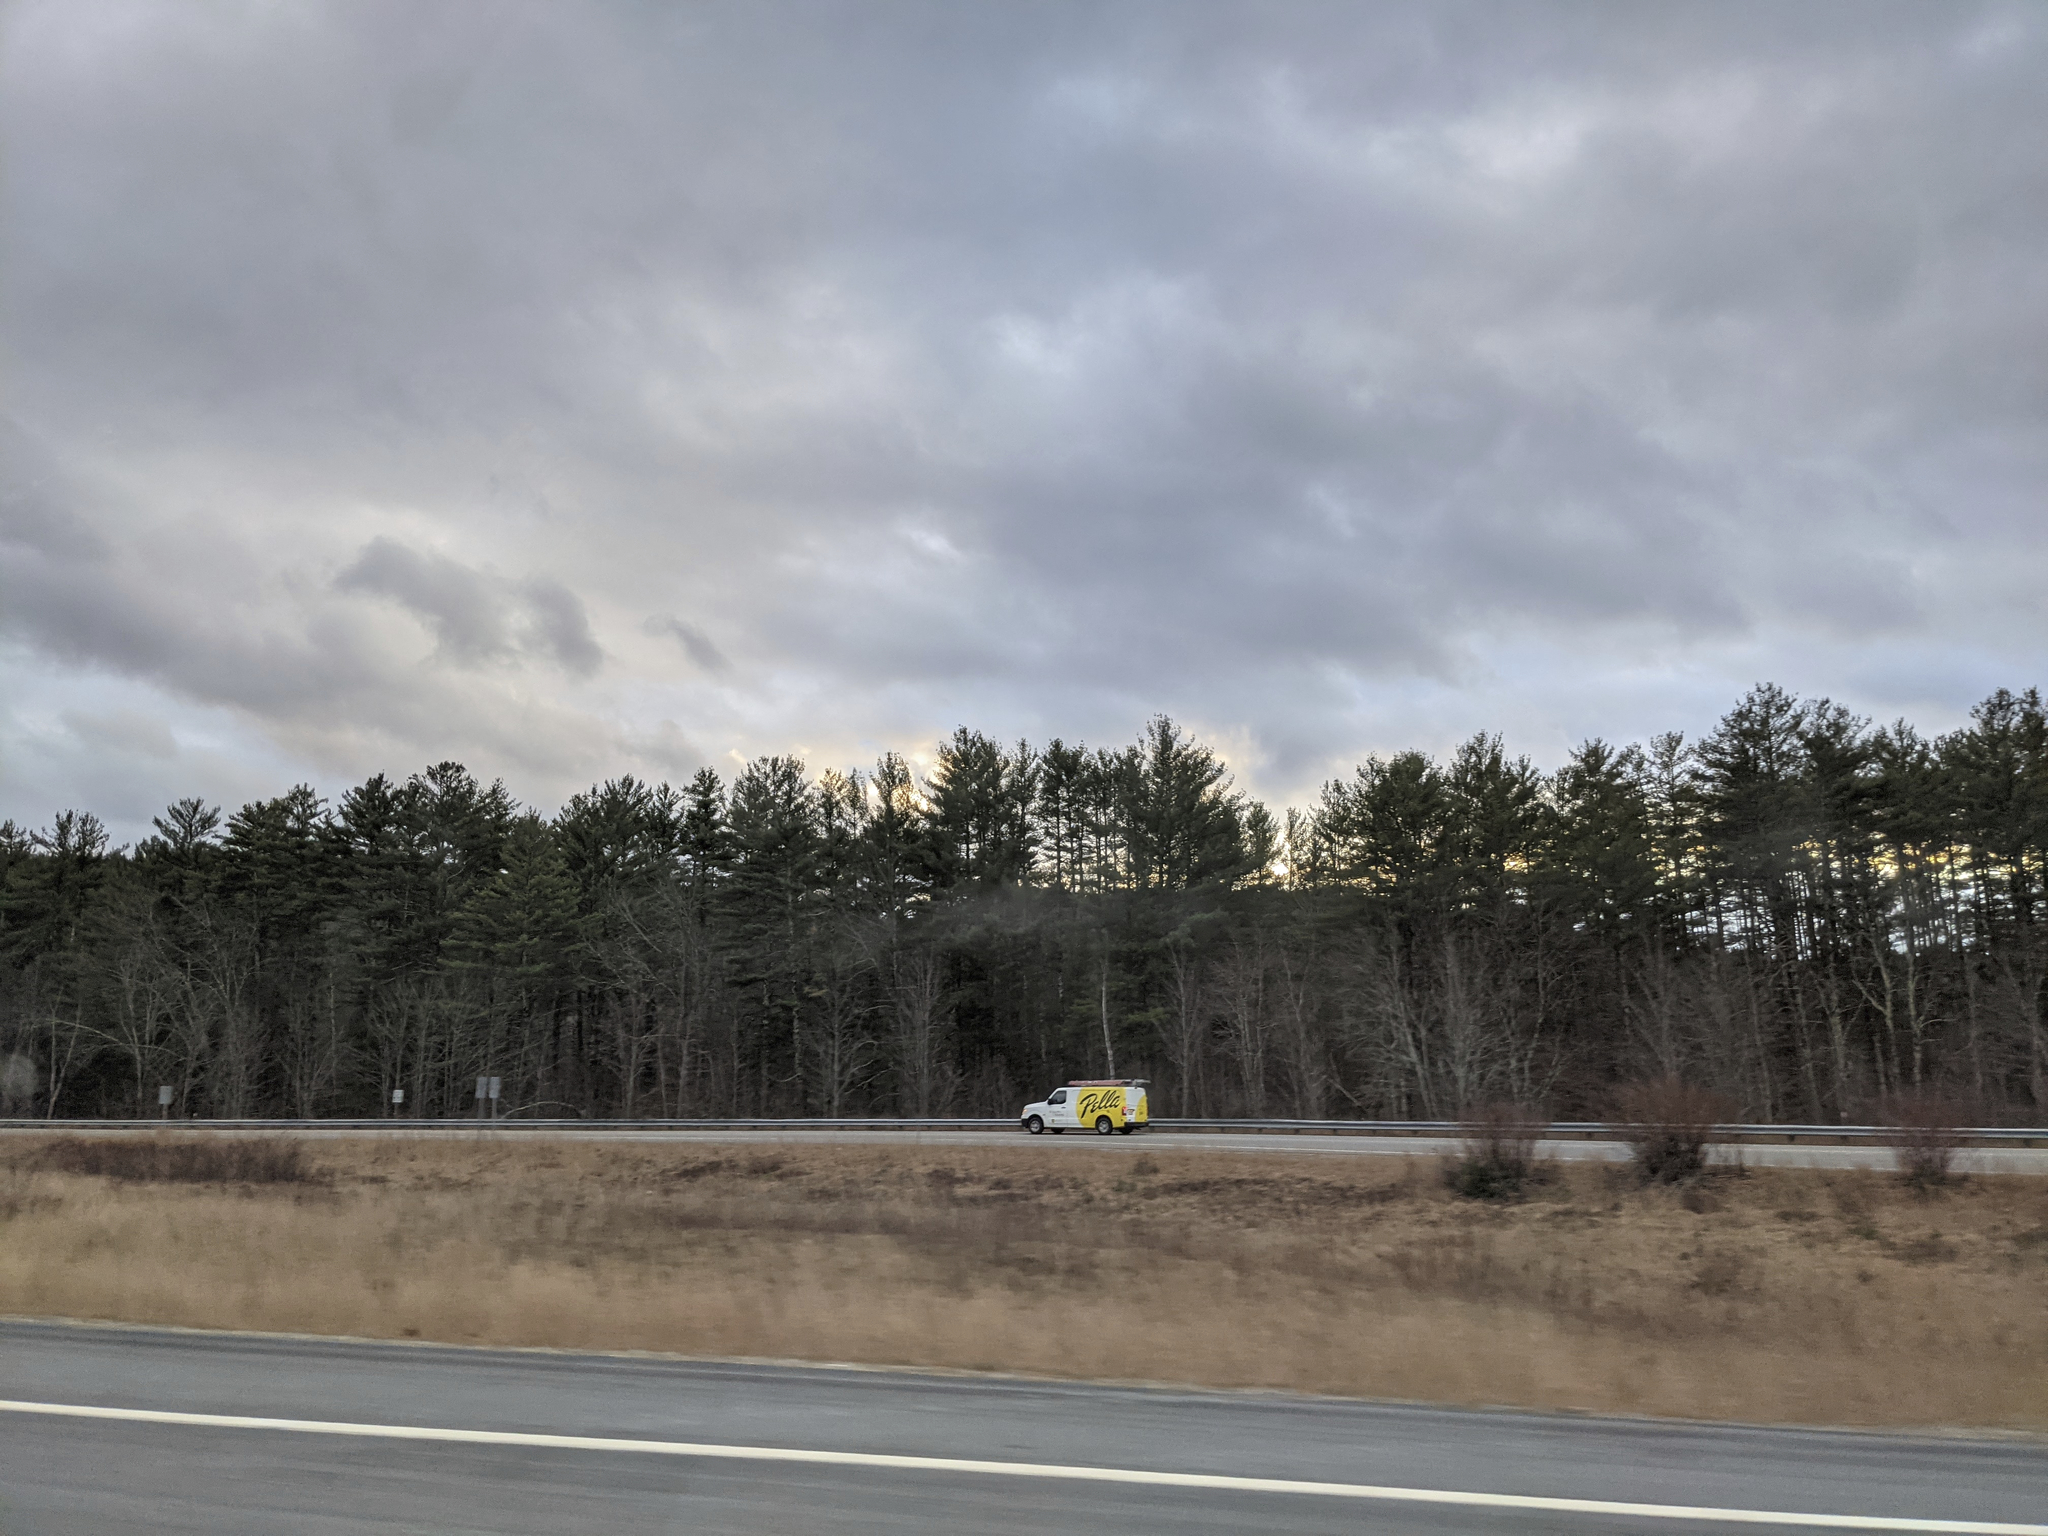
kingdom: Plantae
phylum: Tracheophyta
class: Pinopsida
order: Pinales
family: Pinaceae
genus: Pinus
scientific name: Pinus strobus
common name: Weymouth pine
